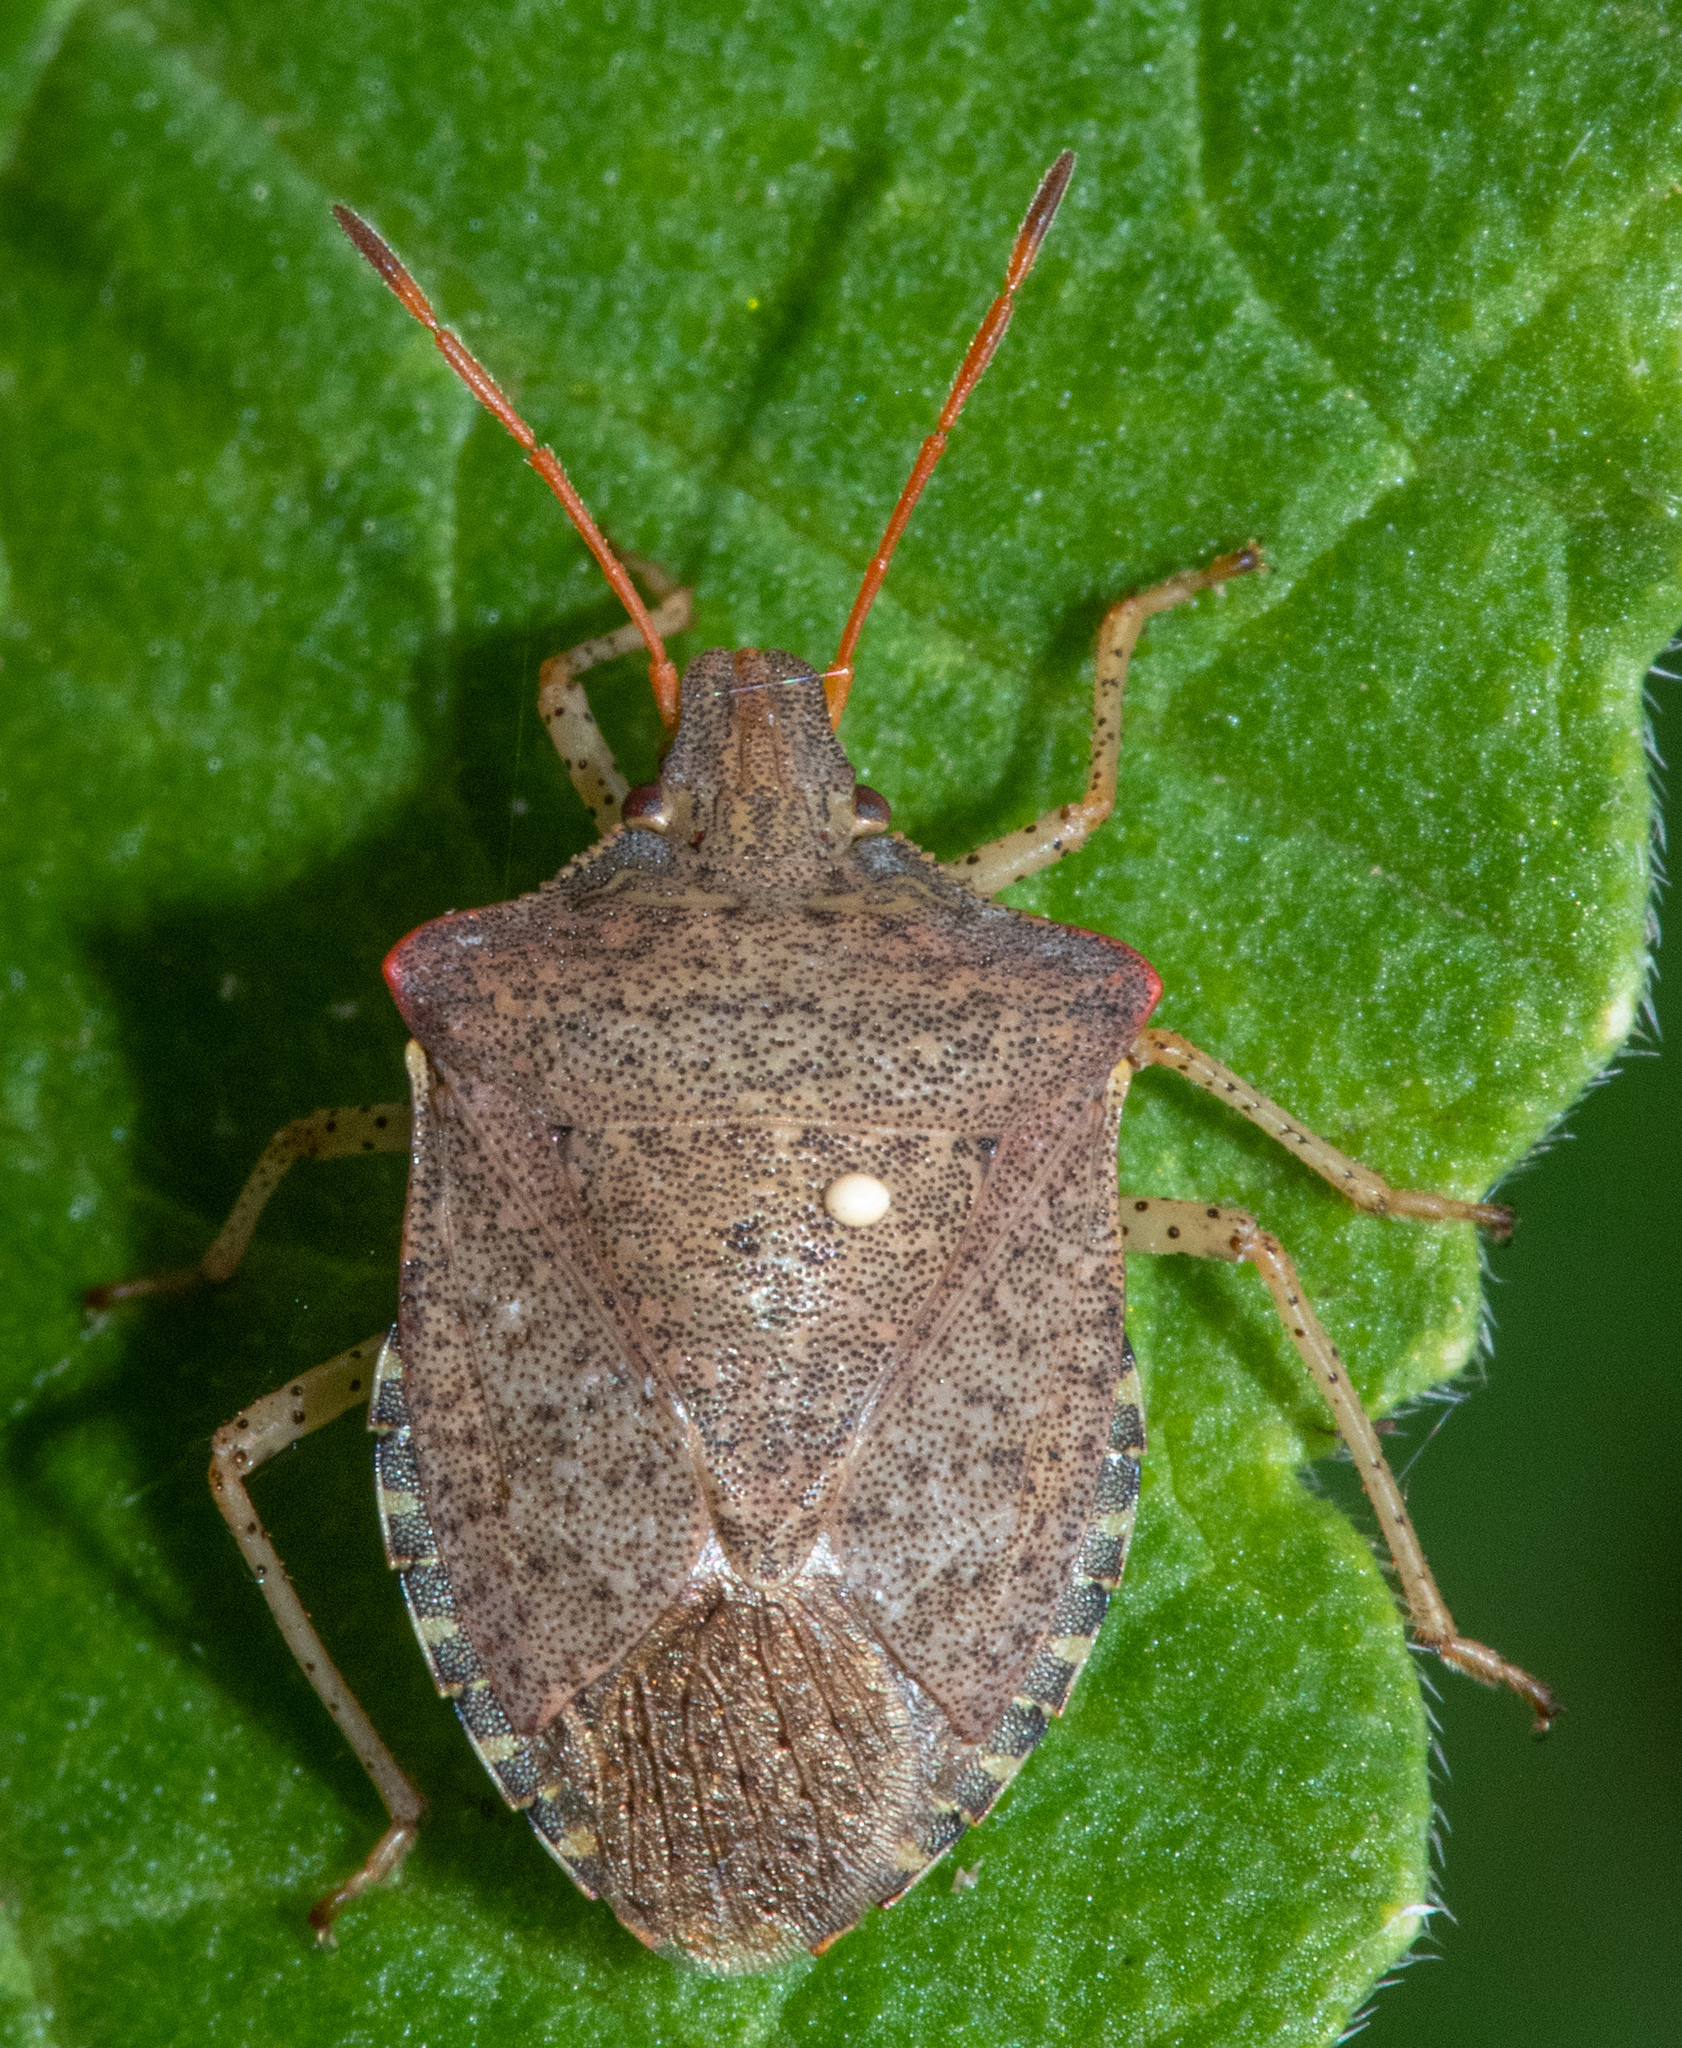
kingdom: Animalia
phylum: Arthropoda
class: Insecta
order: Hemiptera
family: Pentatomidae
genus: Euschistus
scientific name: Euschistus conspersus
